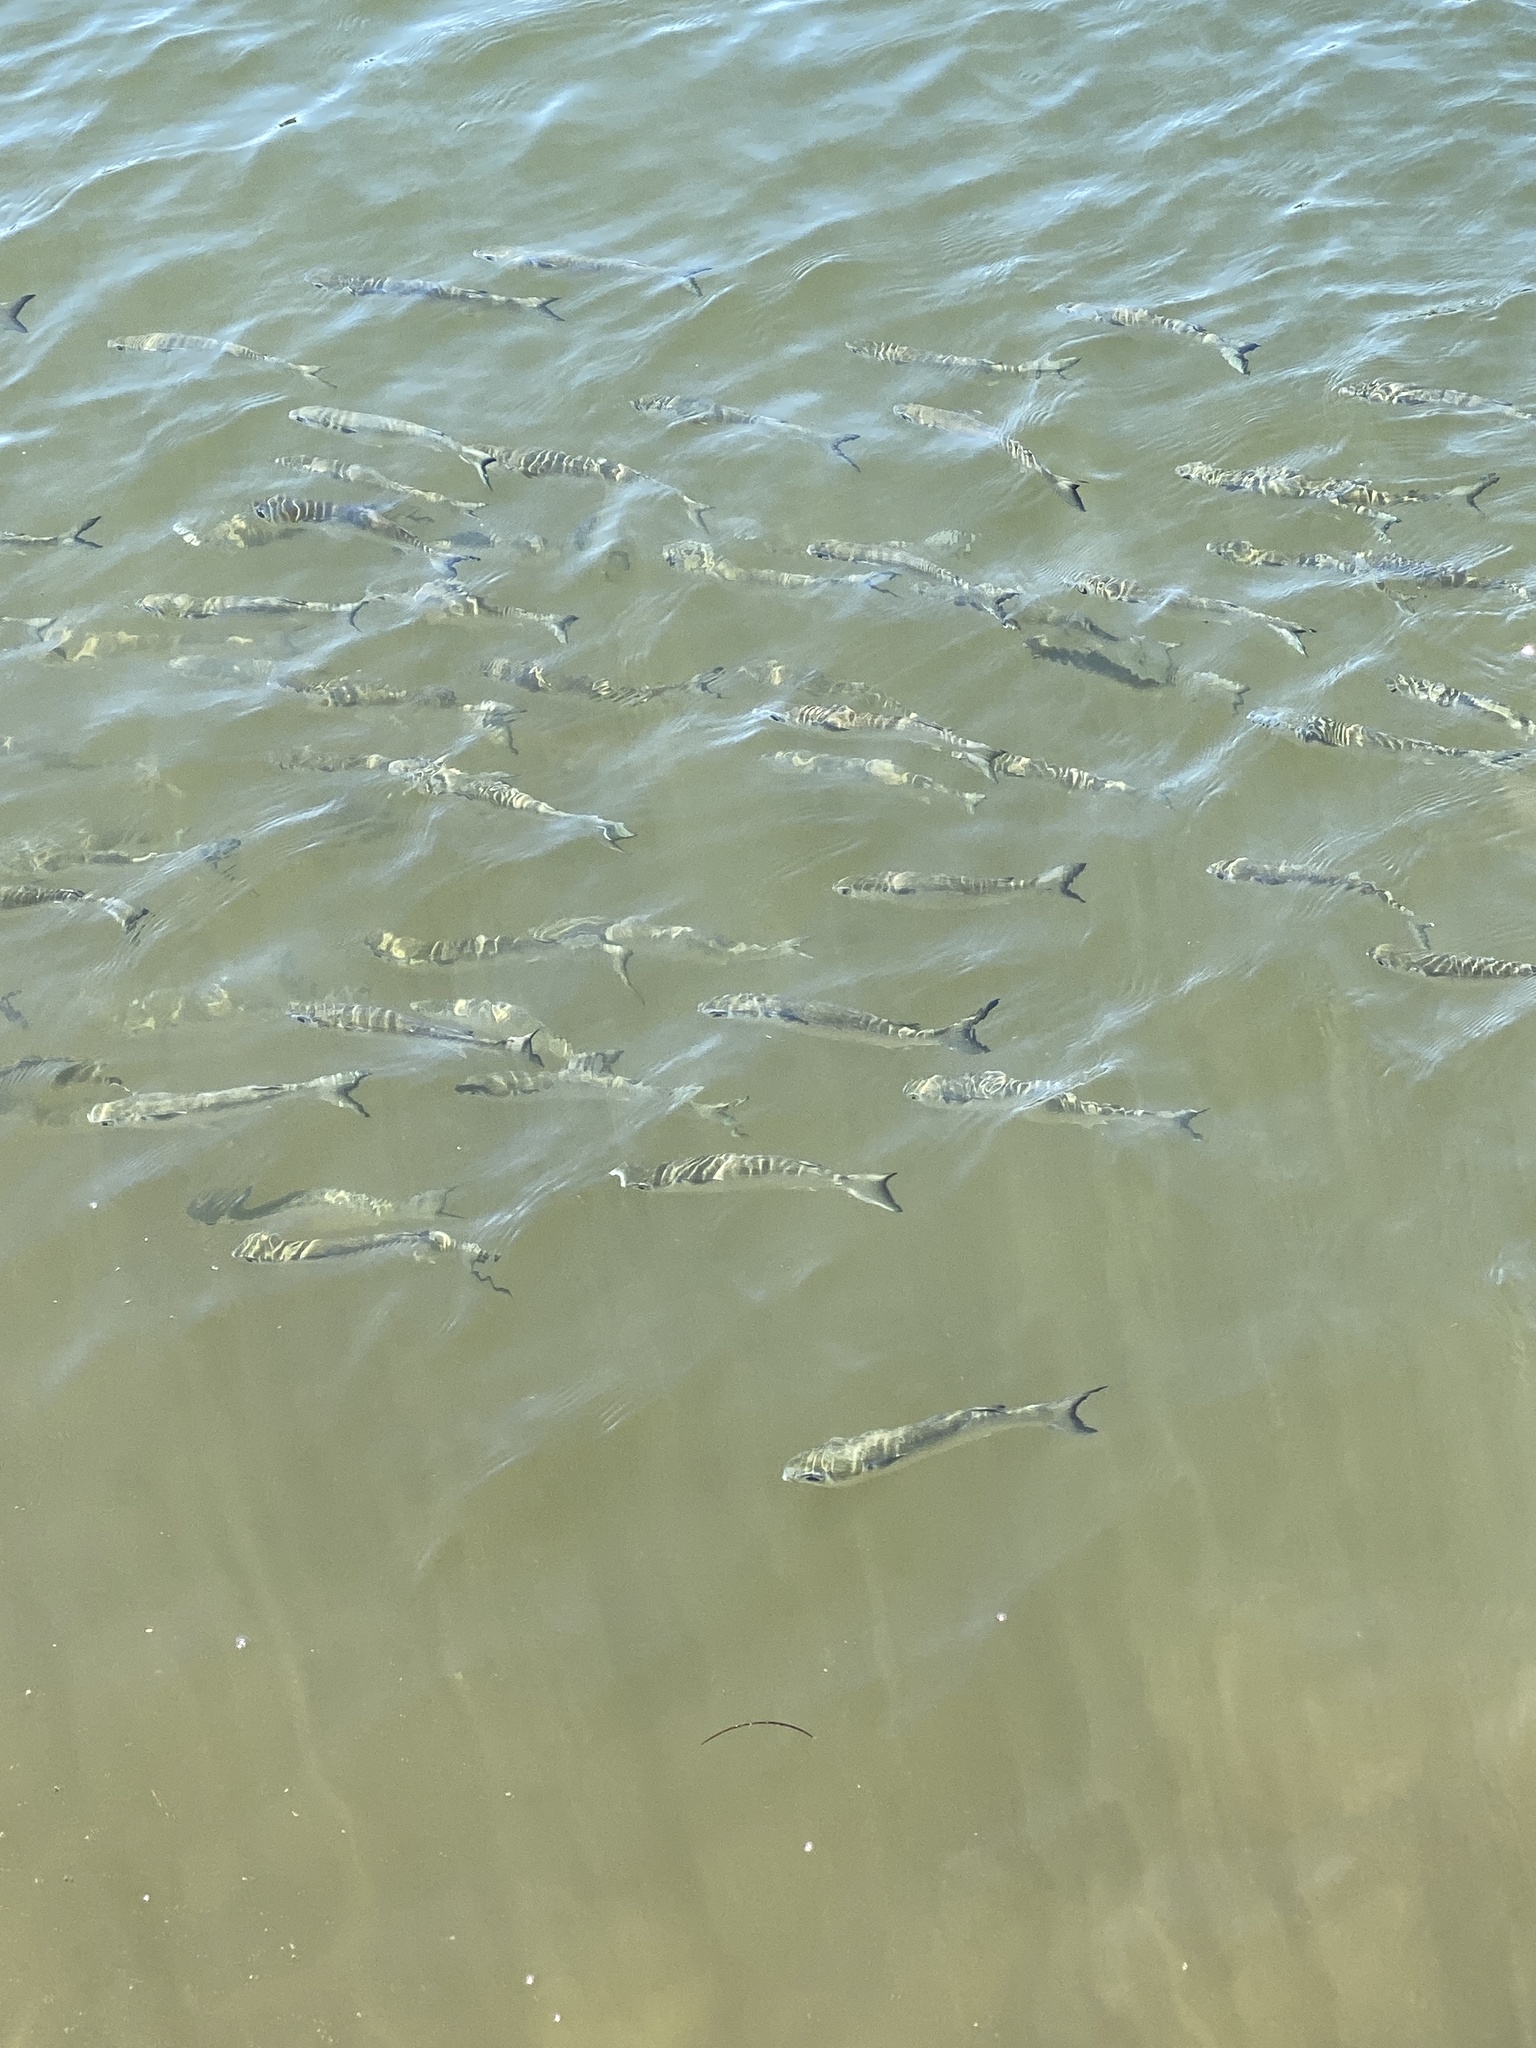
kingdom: Animalia
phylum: Chordata
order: Mugiliformes
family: Mugilidae
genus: Mugil
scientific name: Mugil
